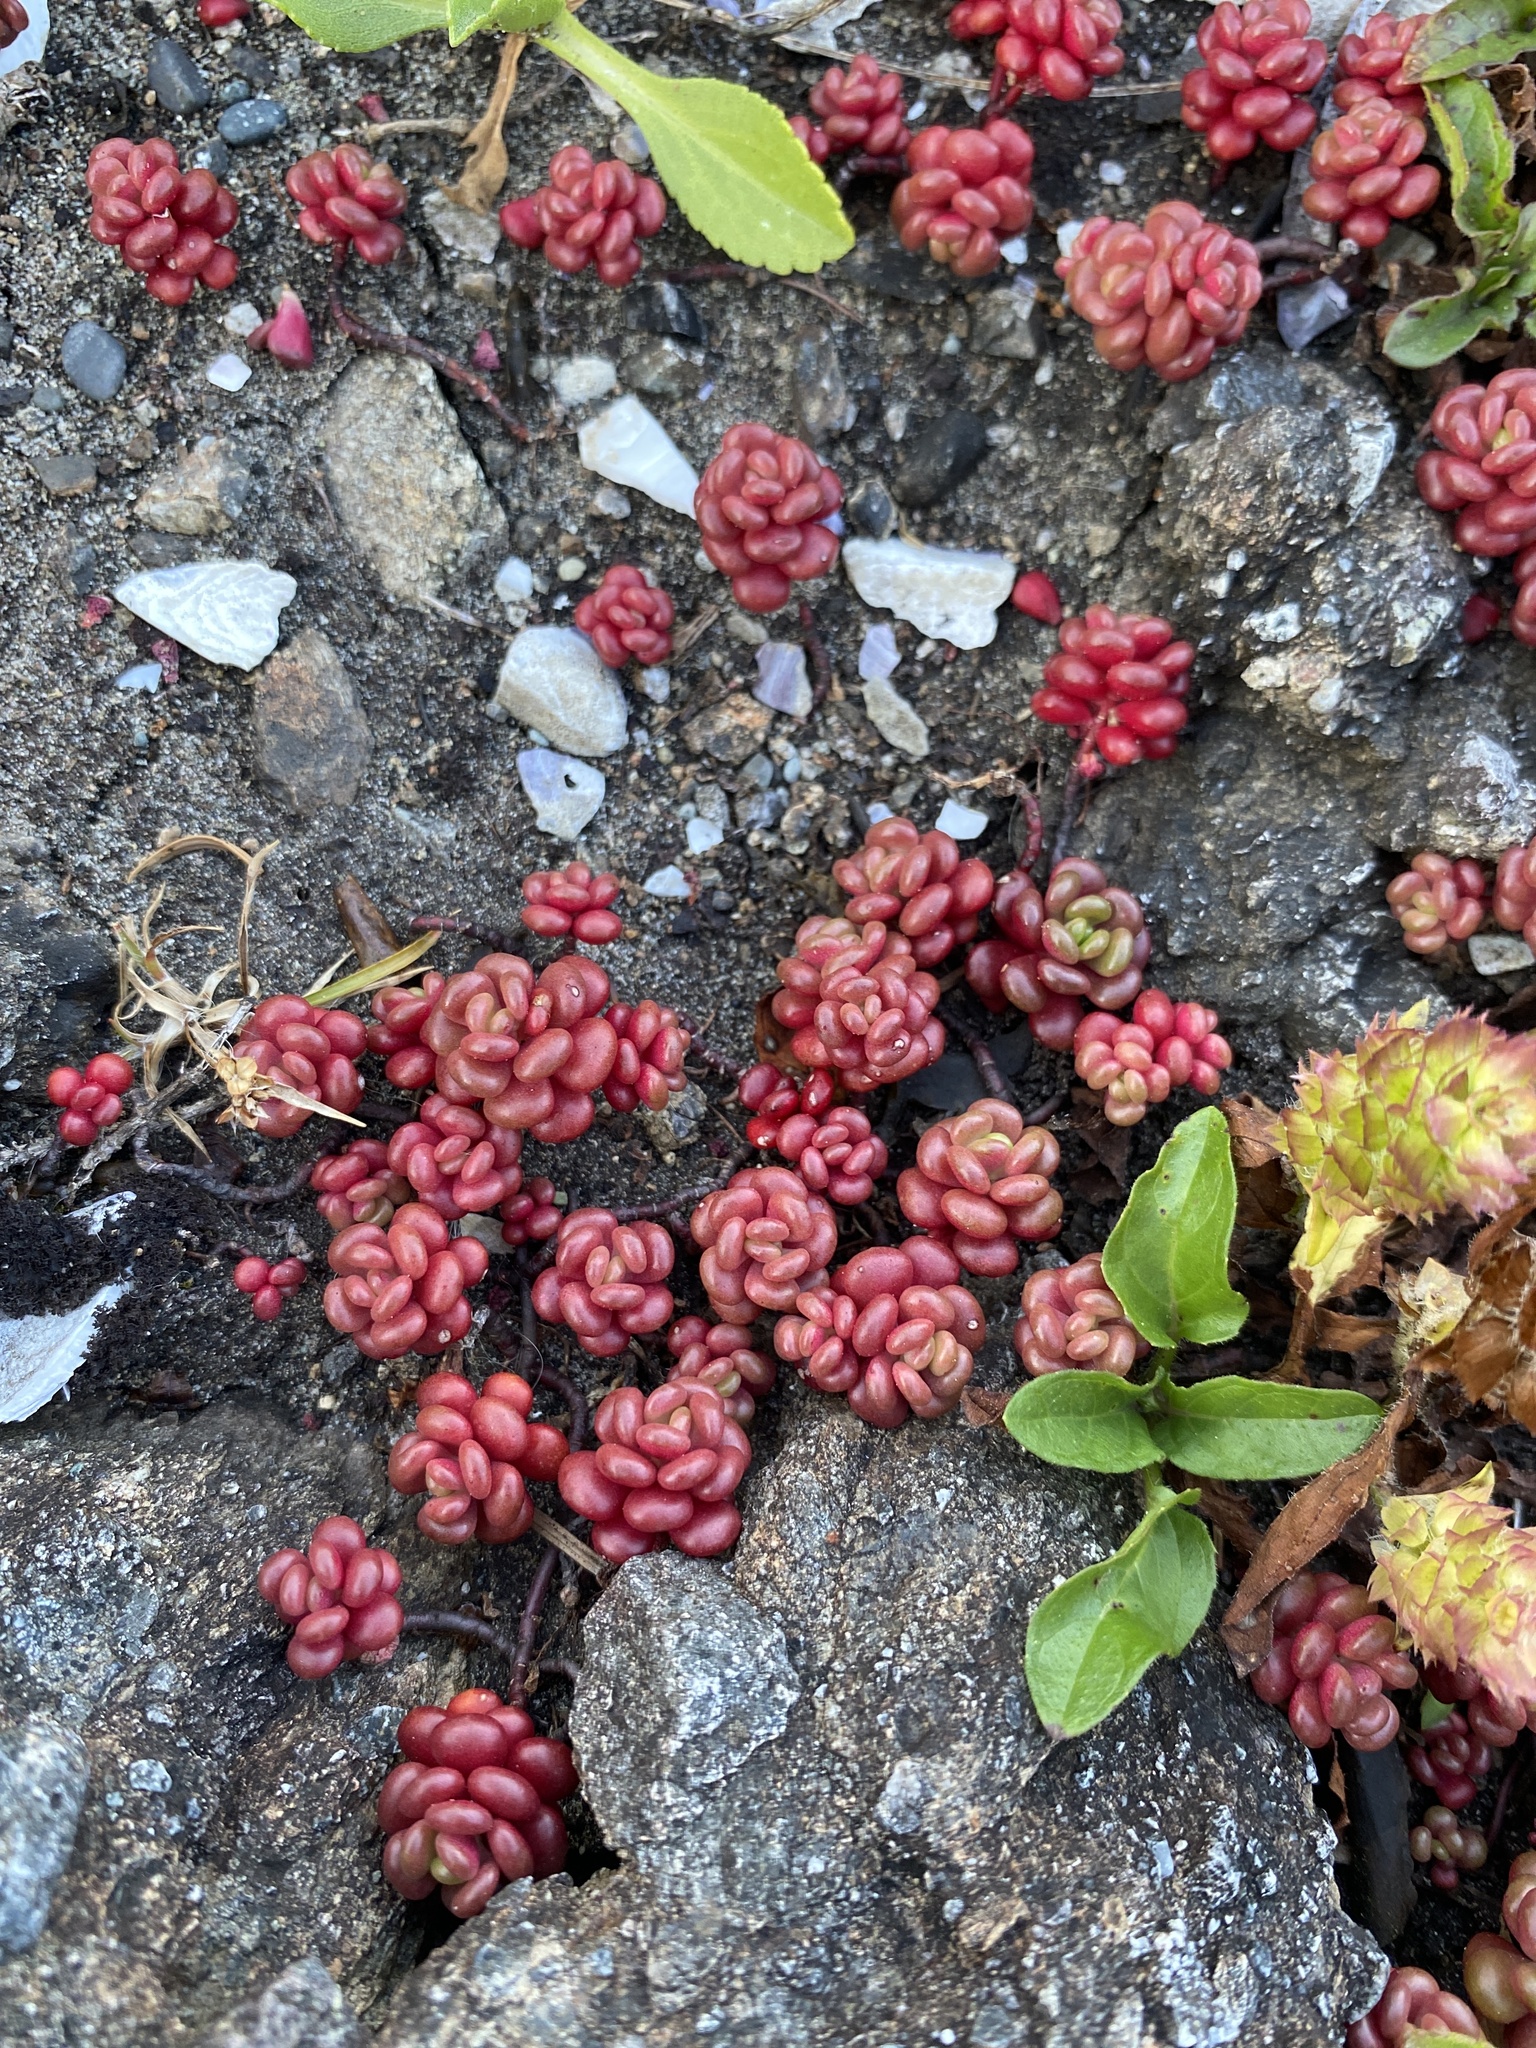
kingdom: Plantae
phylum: Tracheophyta
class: Magnoliopsida
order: Saxifragales
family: Crassulaceae
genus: Sedum
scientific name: Sedum oreganum
